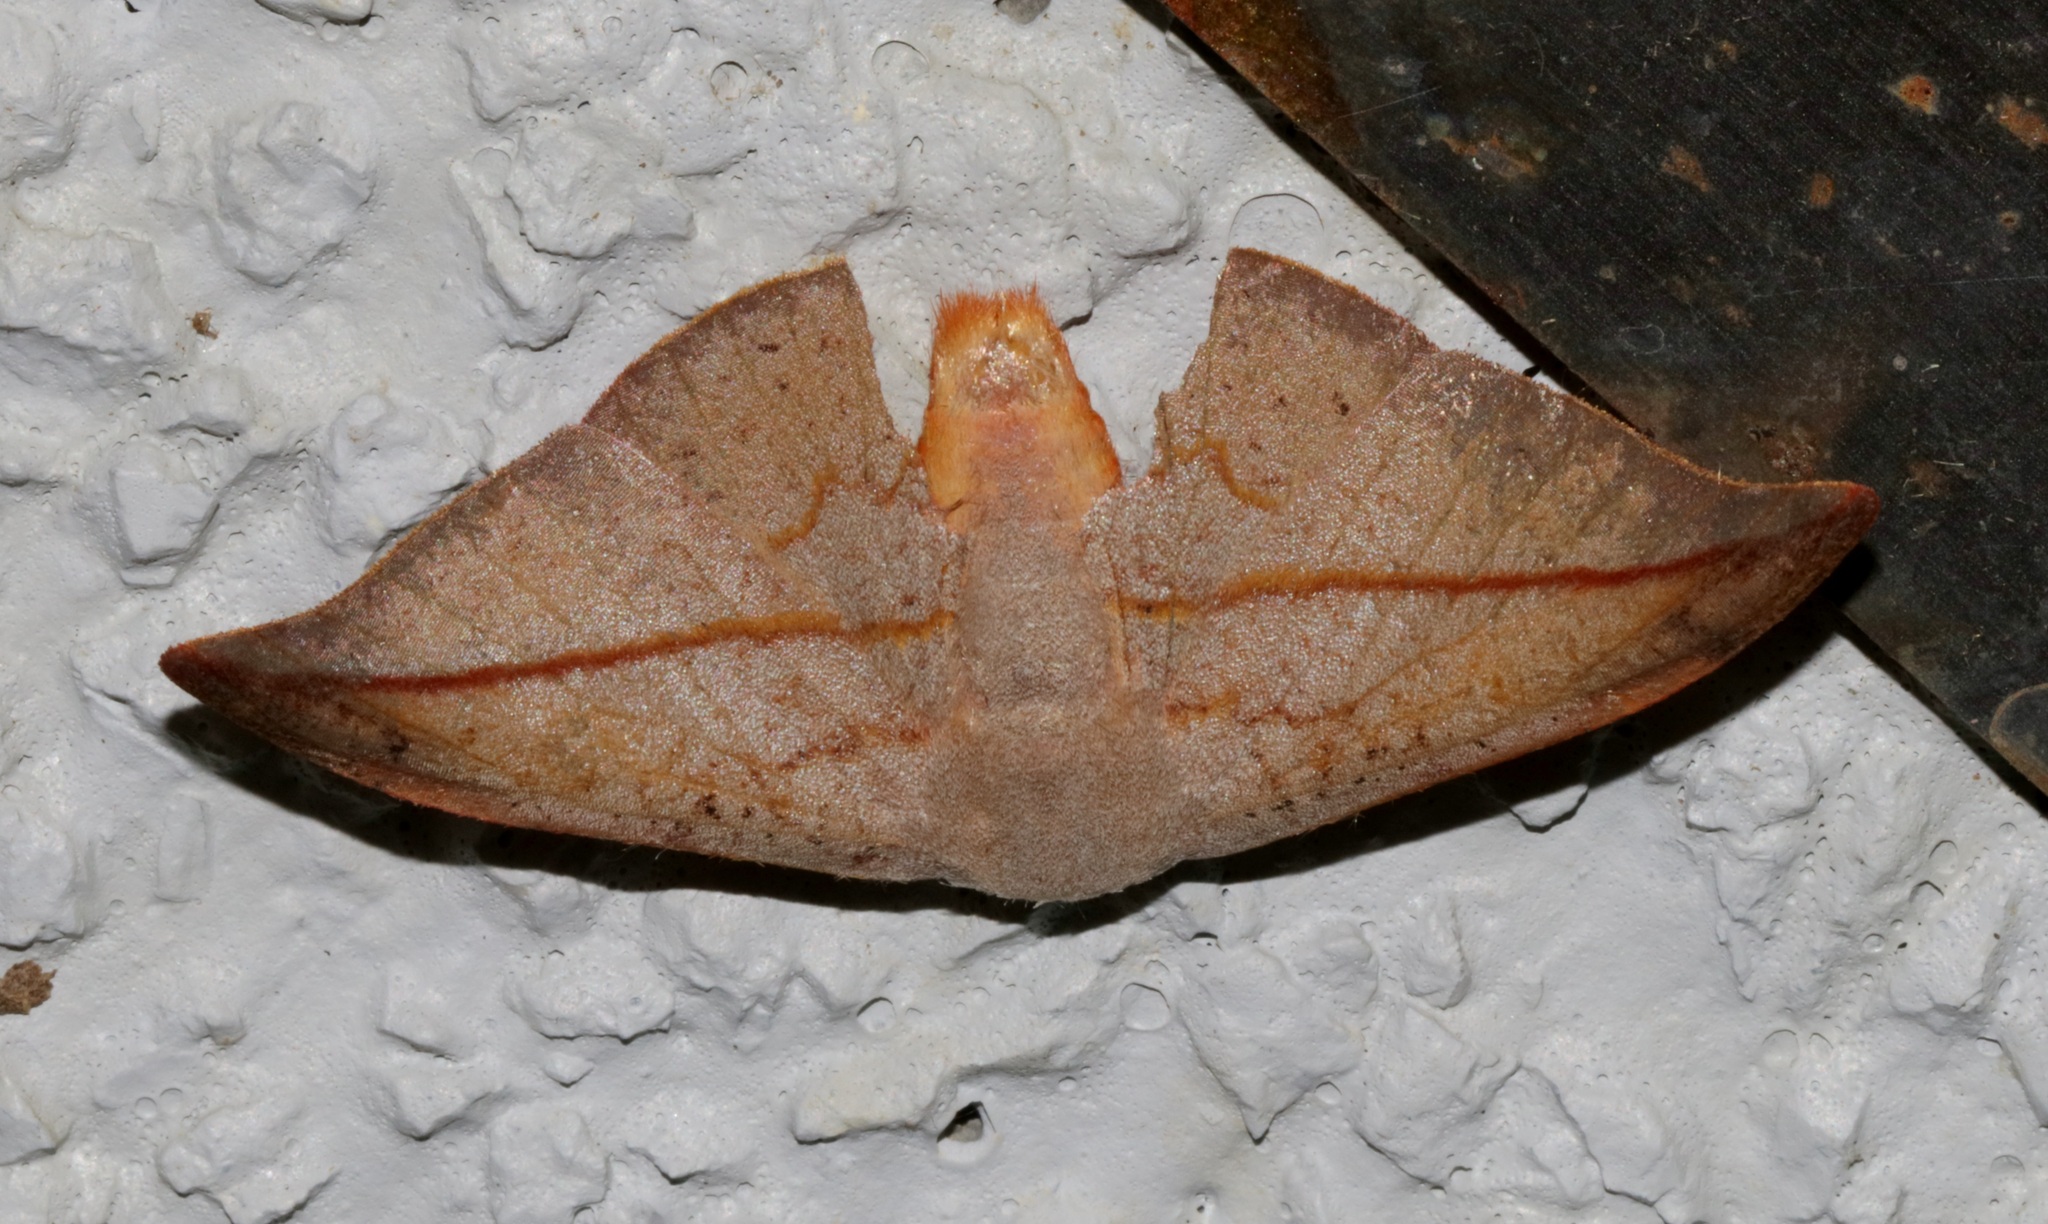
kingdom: Animalia
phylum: Arthropoda
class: Insecta
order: Lepidoptera
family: Drepanidae
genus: Oreta
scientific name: Oreta insignis
